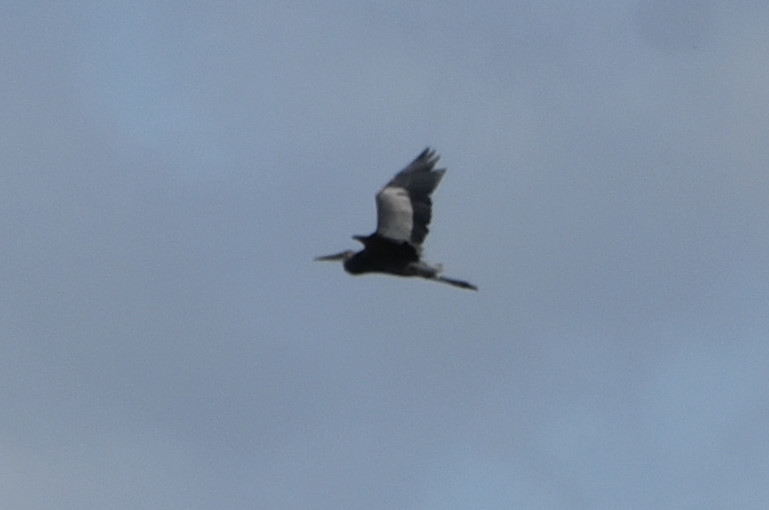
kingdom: Animalia
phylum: Chordata
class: Aves
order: Pelecaniformes
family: Ardeidae
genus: Ardea
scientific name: Ardea herodias
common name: Great blue heron
